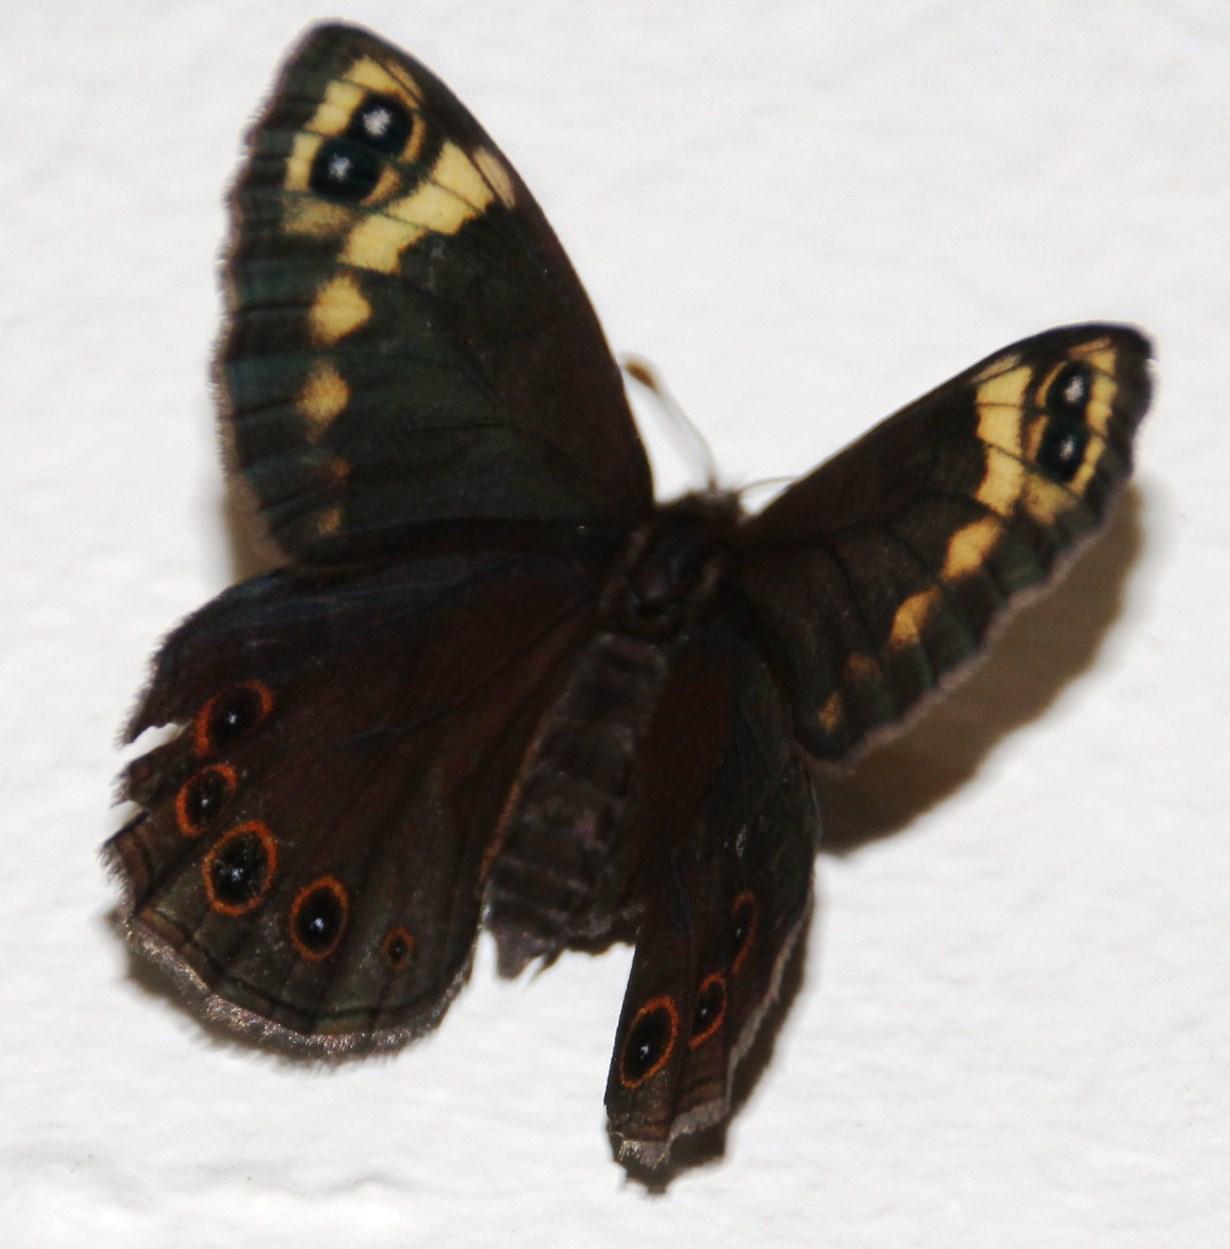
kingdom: Animalia
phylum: Arthropoda
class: Insecta
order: Lepidoptera
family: Nymphalidae
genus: Dira
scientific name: Dira clytus
